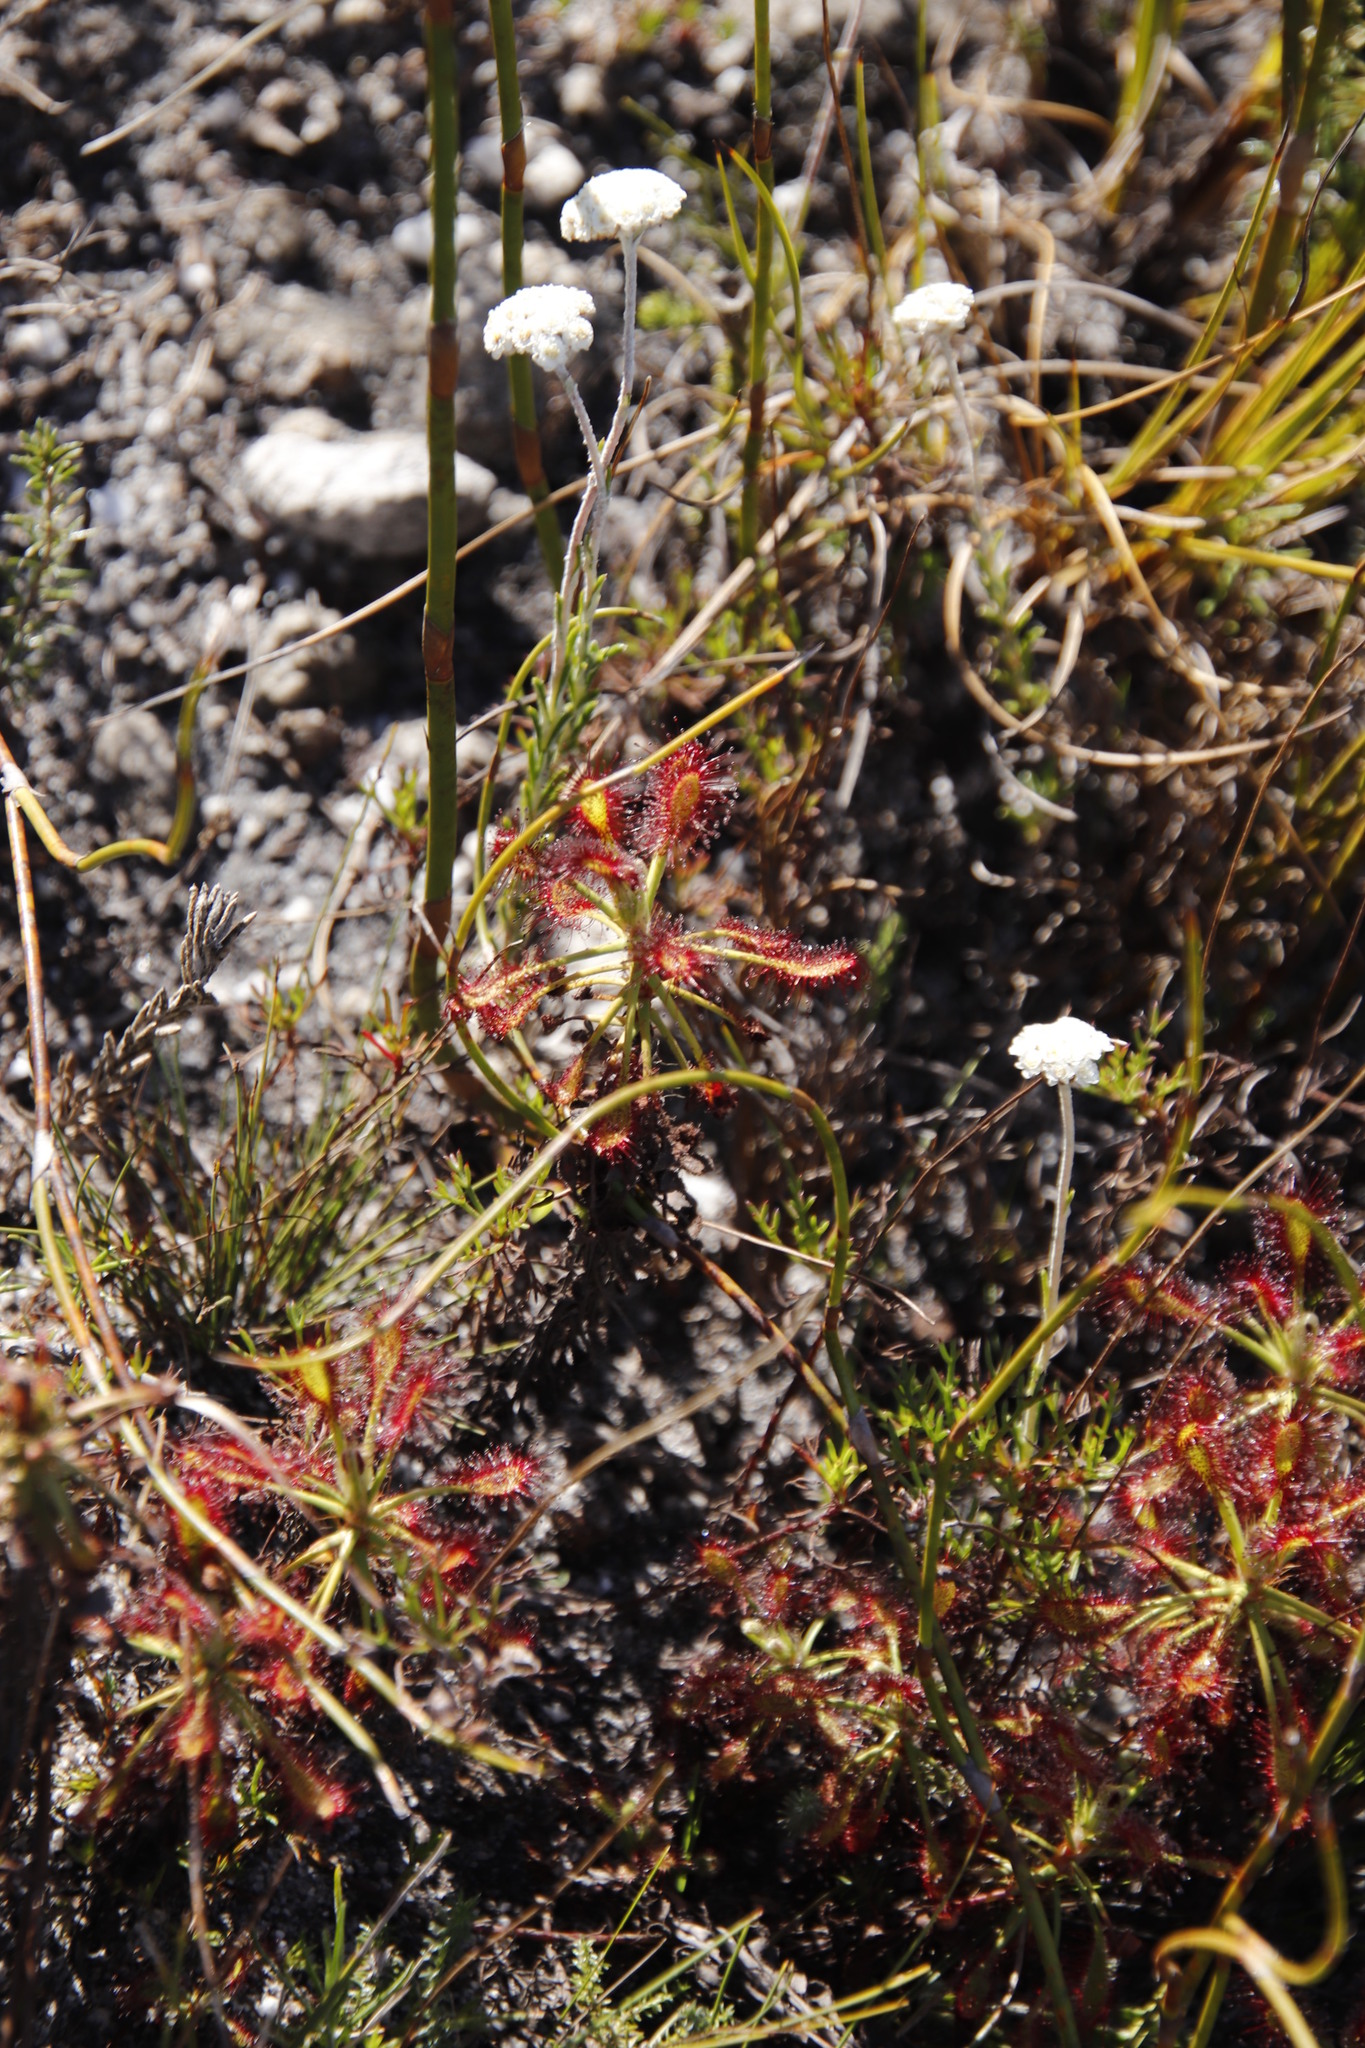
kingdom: Plantae
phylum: Tracheophyta
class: Magnoliopsida
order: Caryophyllales
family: Droseraceae
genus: Drosera
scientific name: Drosera glabripes
